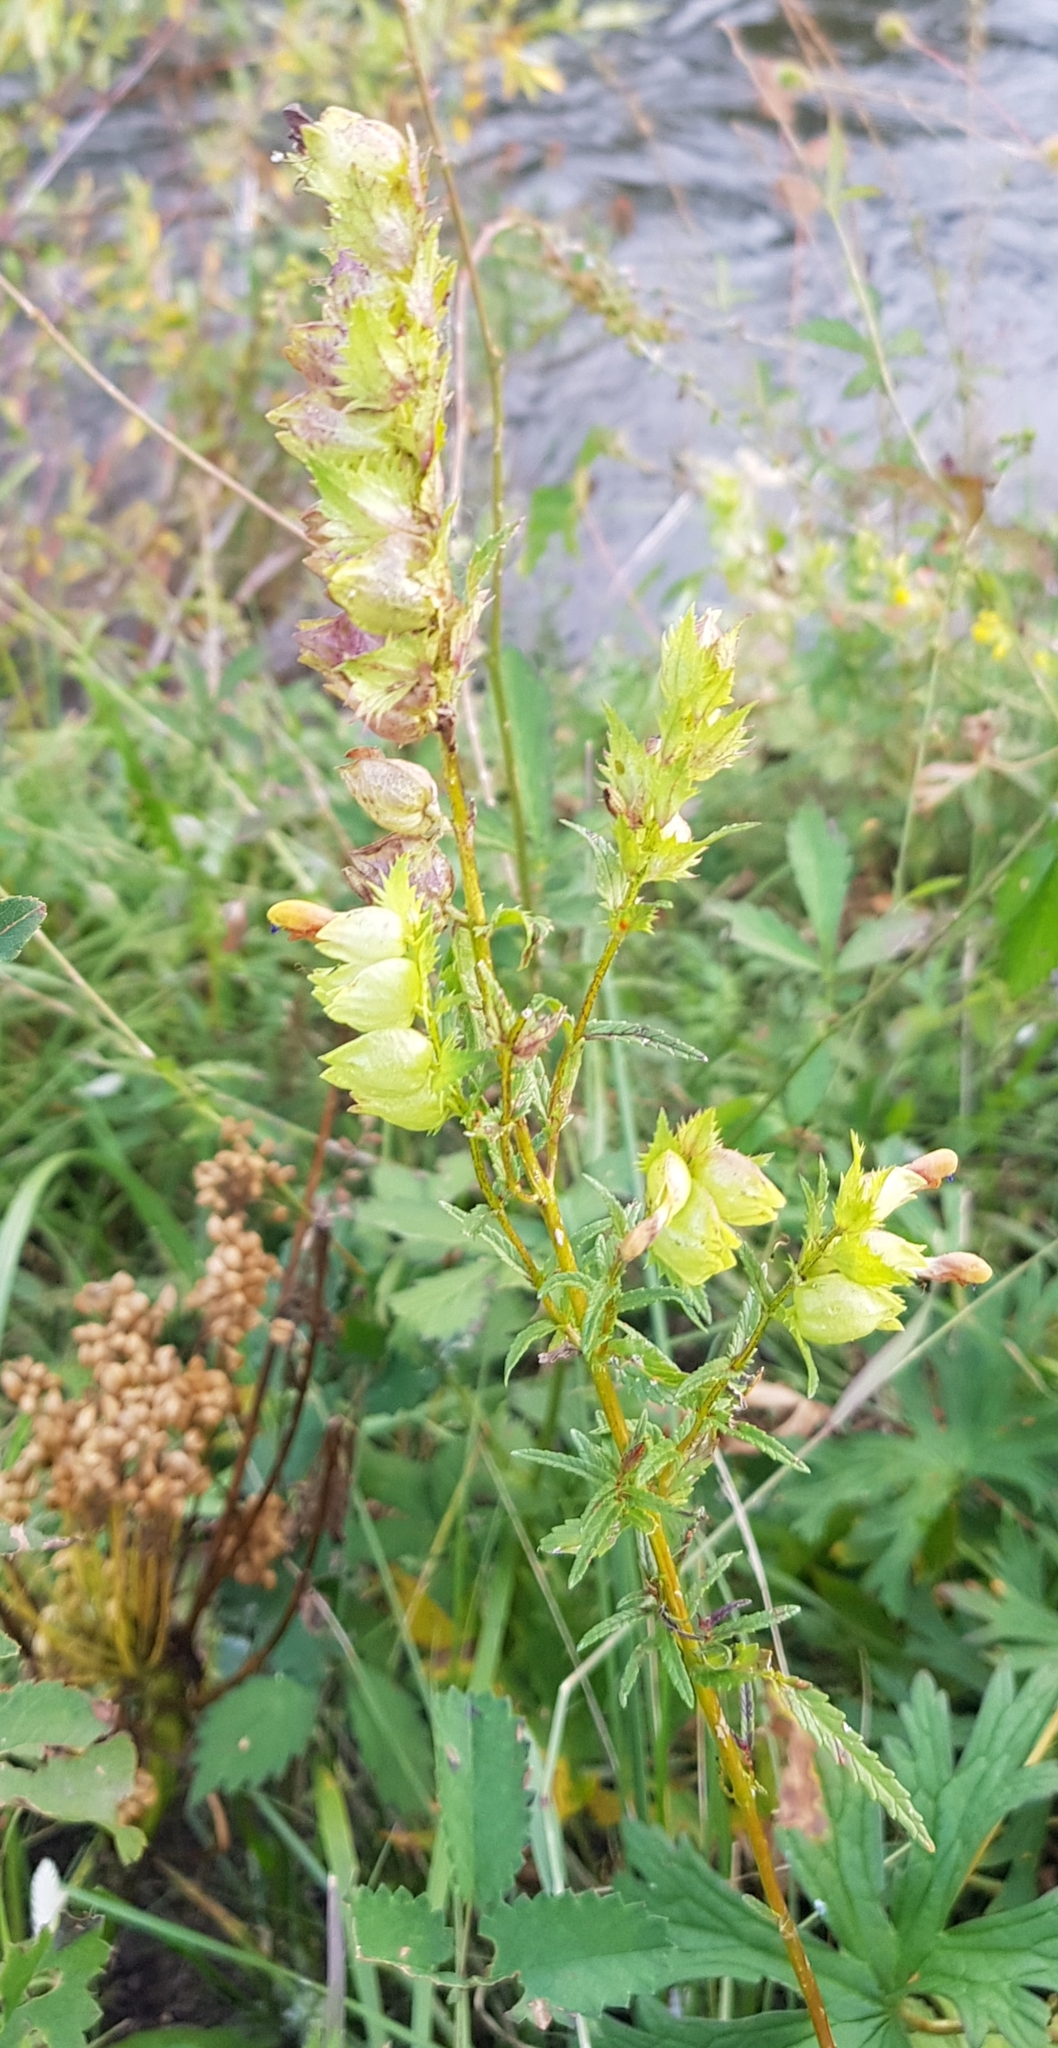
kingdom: Plantae
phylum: Tracheophyta
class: Magnoliopsida
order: Lamiales
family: Orobanchaceae
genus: Rhinanthus
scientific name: Rhinanthus serotinus
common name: Late-flowering yellow rattle
